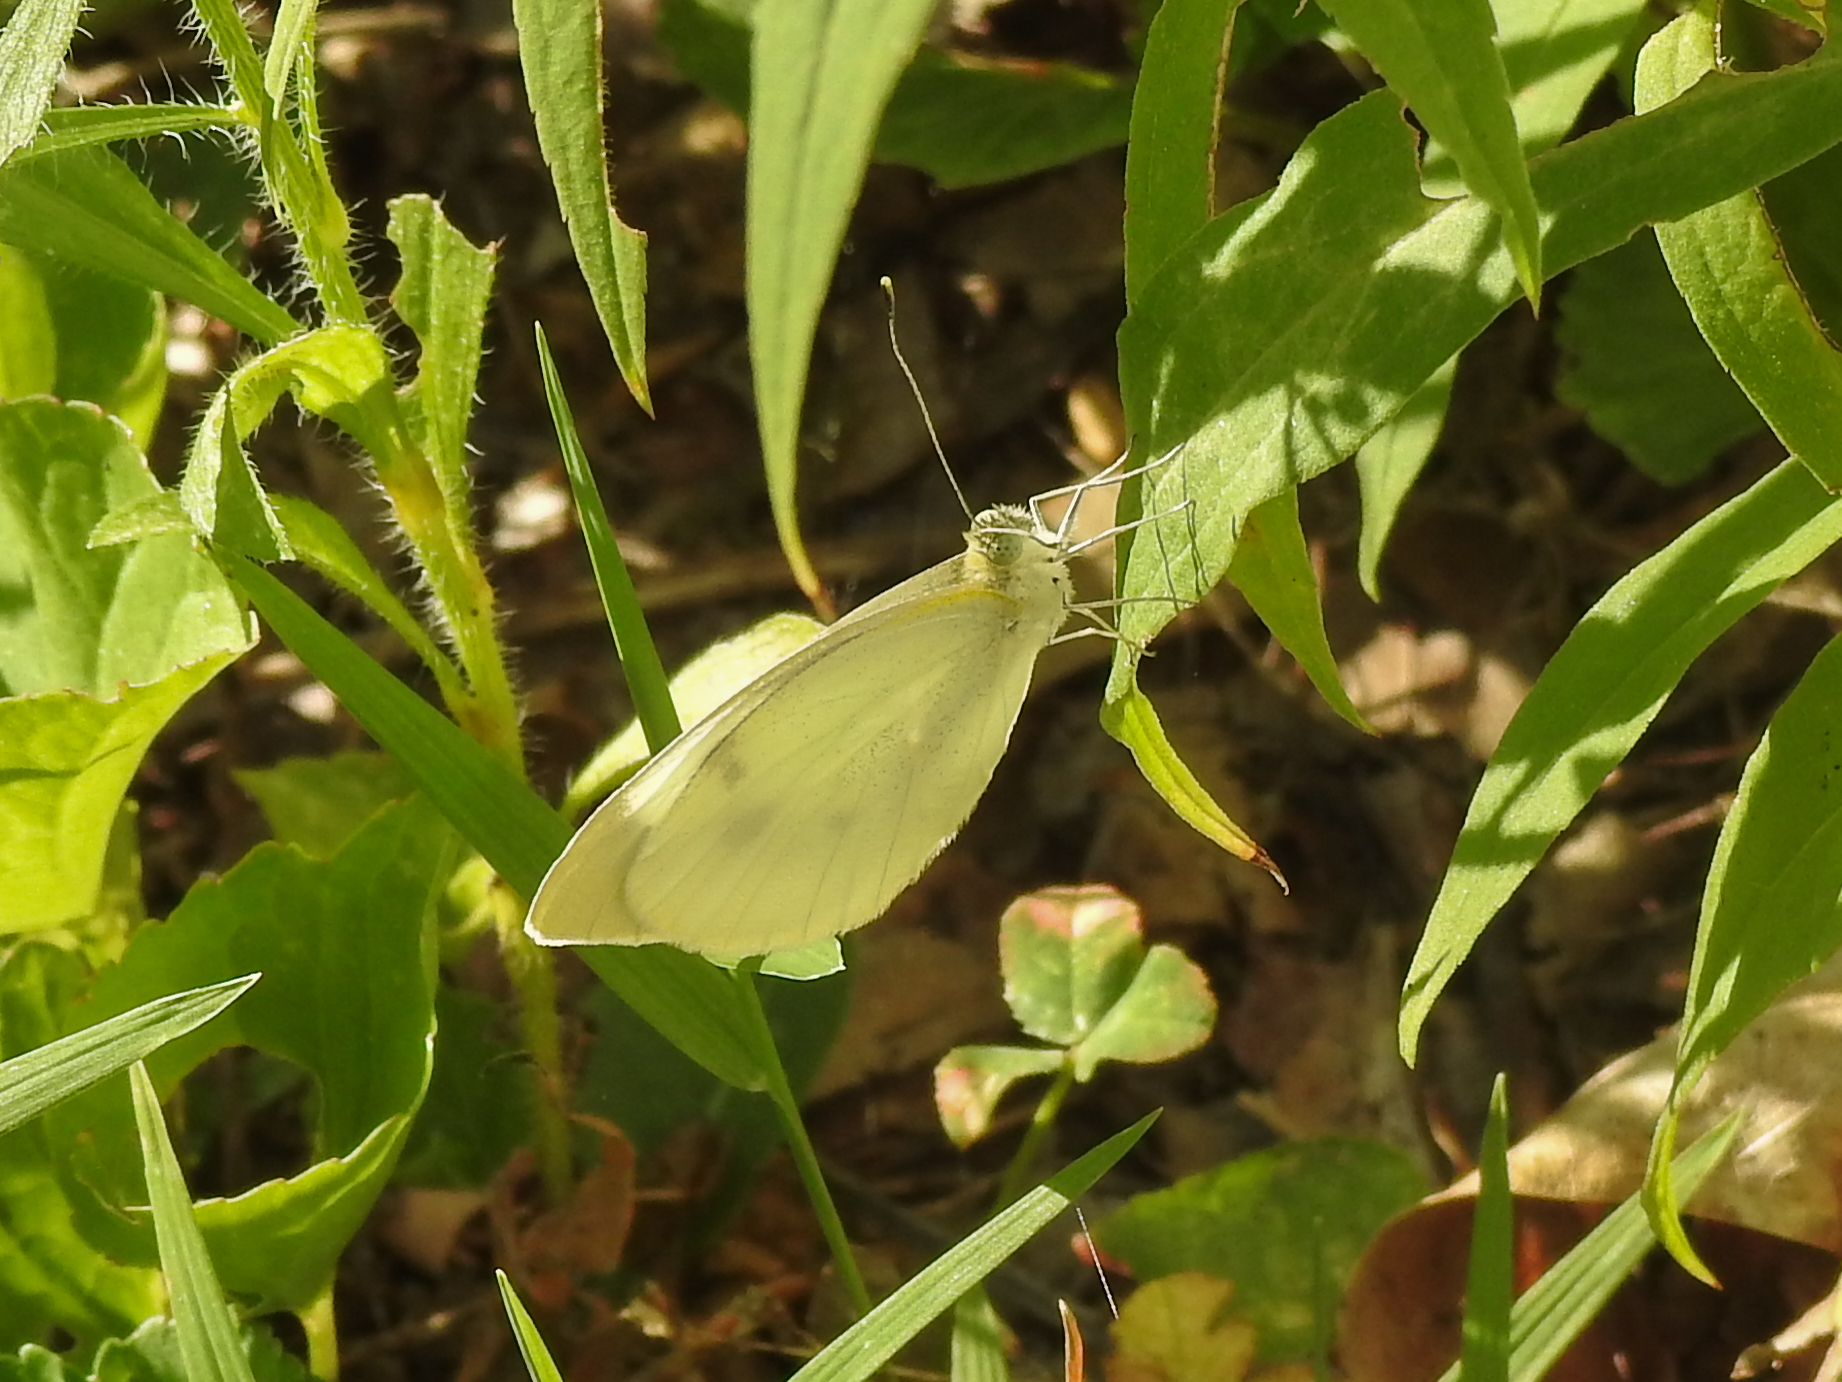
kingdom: Animalia
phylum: Arthropoda
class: Insecta
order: Lepidoptera
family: Pieridae
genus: Pieris
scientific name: Pieris rapae
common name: Small white
